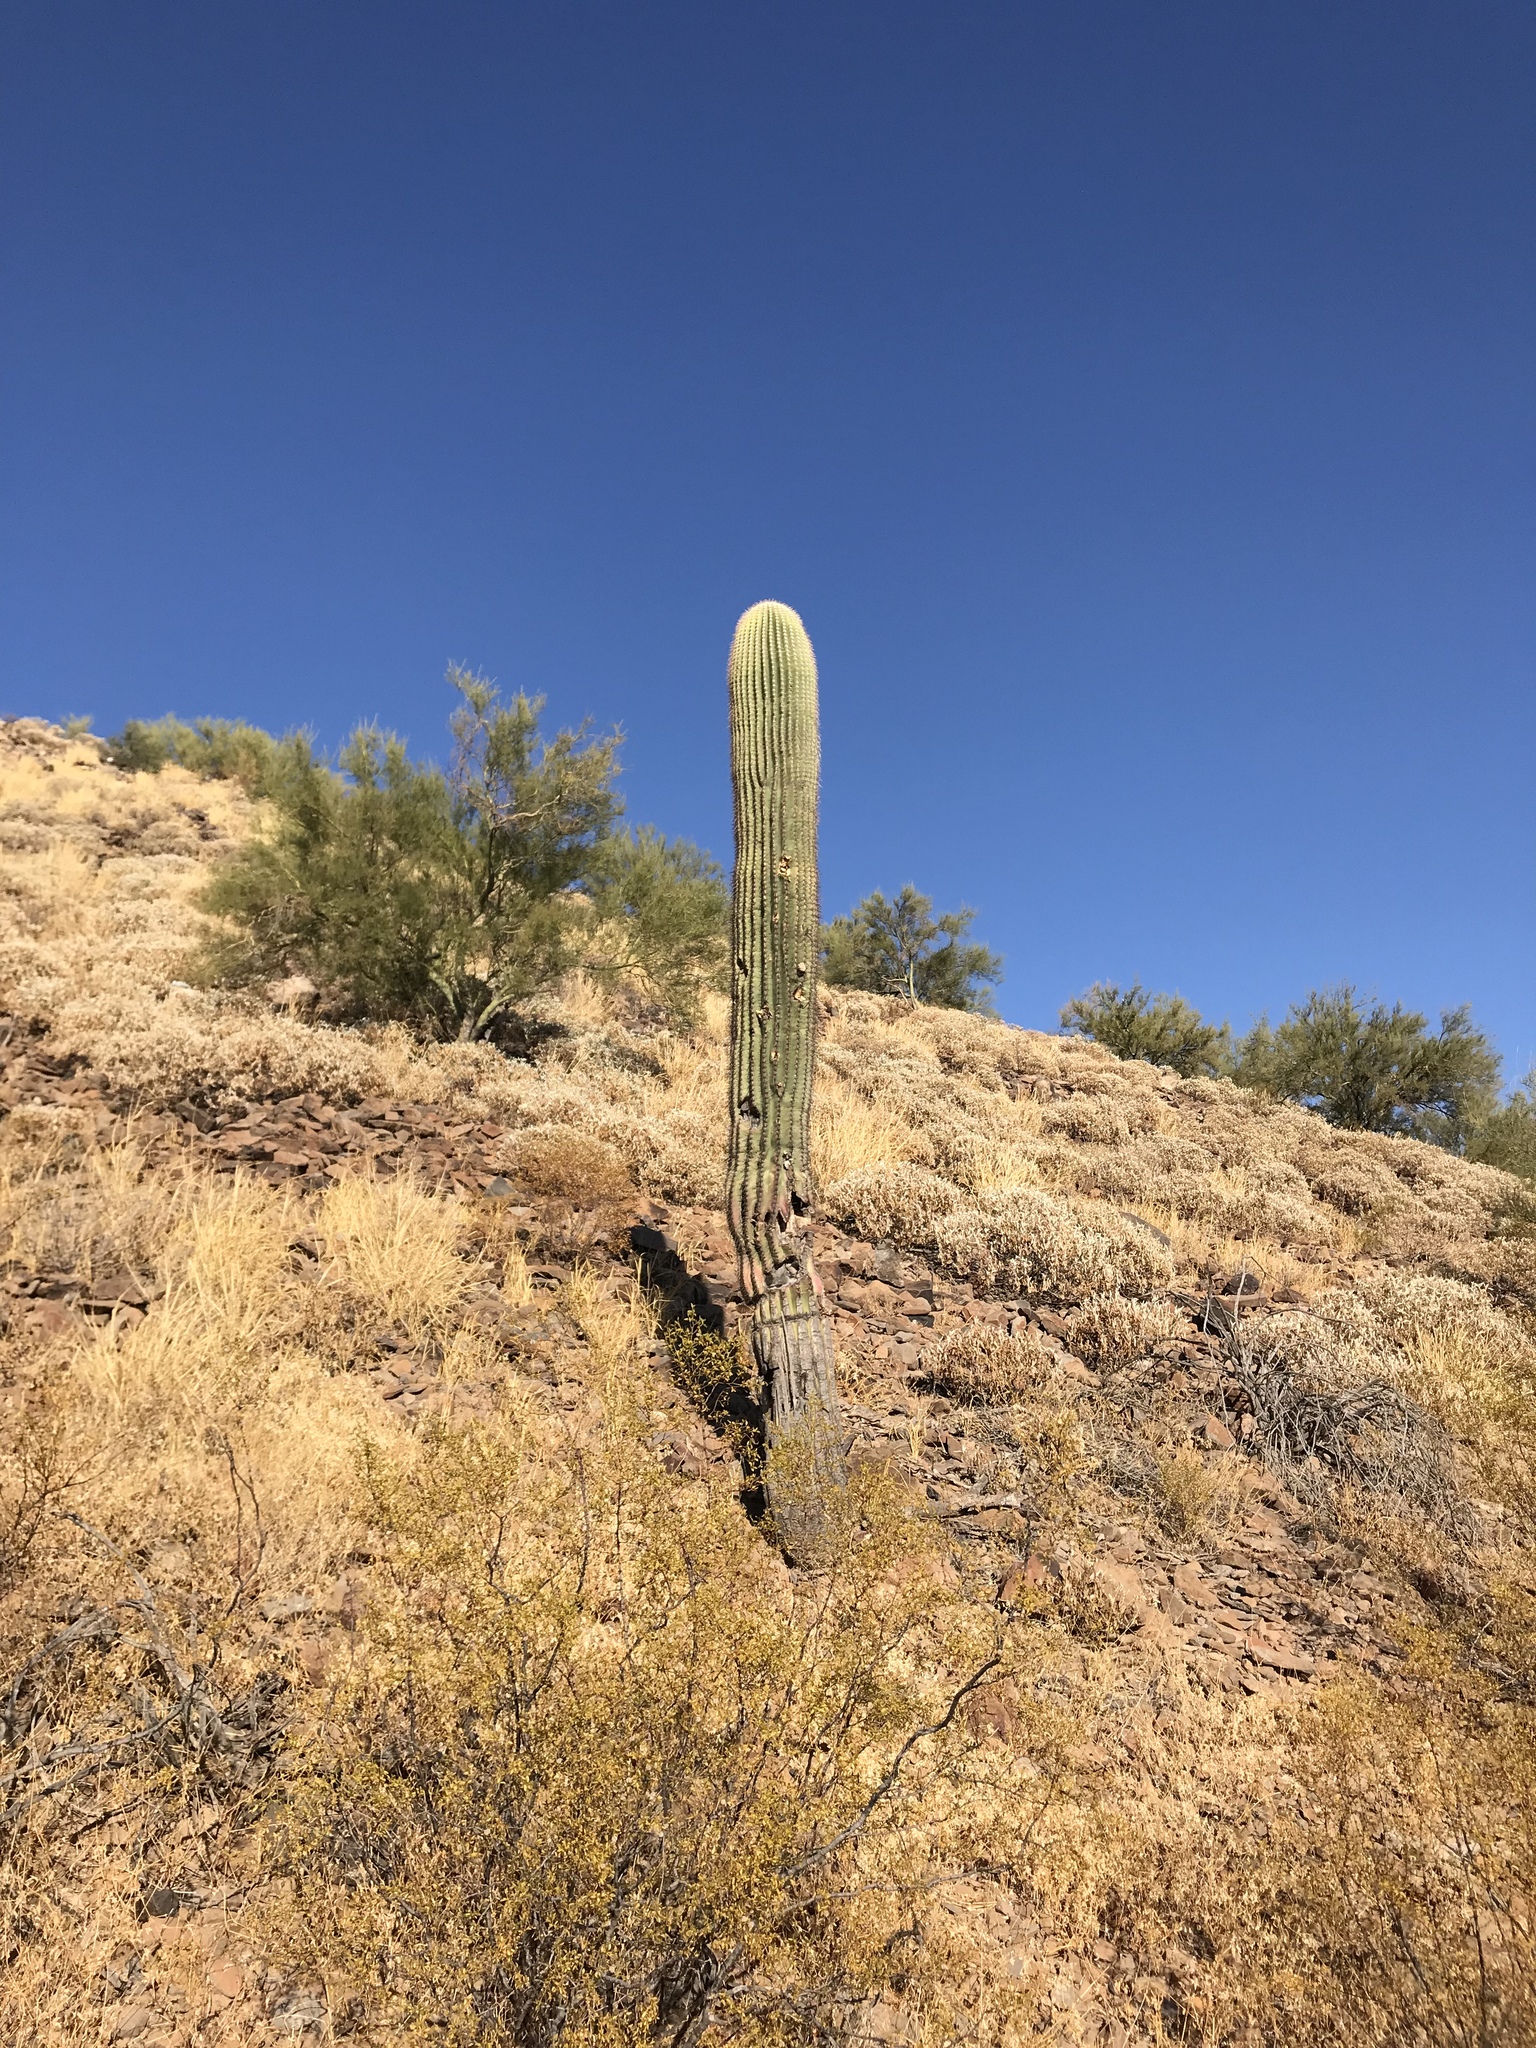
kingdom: Plantae
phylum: Tracheophyta
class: Magnoliopsida
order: Caryophyllales
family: Cactaceae
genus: Carnegiea
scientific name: Carnegiea gigantea
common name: Saguaro
